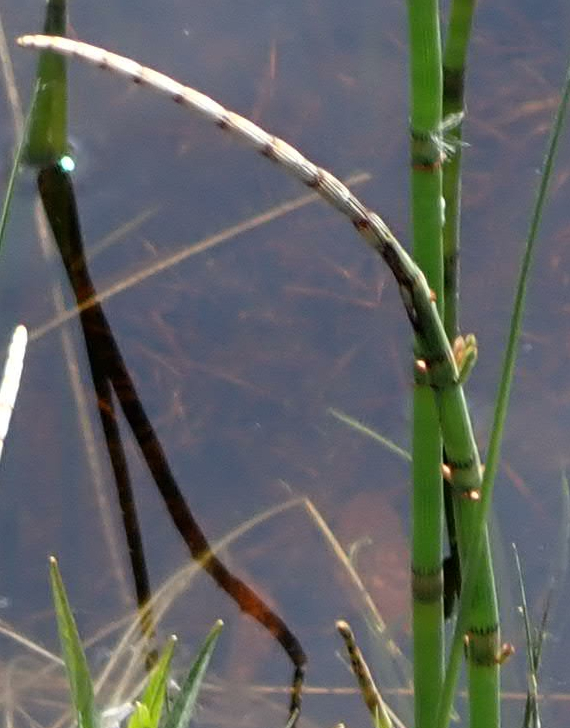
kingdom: Plantae
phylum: Tracheophyta
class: Polypodiopsida
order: Equisetales
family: Equisetaceae
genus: Equisetum
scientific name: Equisetum fluviatile
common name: Water horsetail
